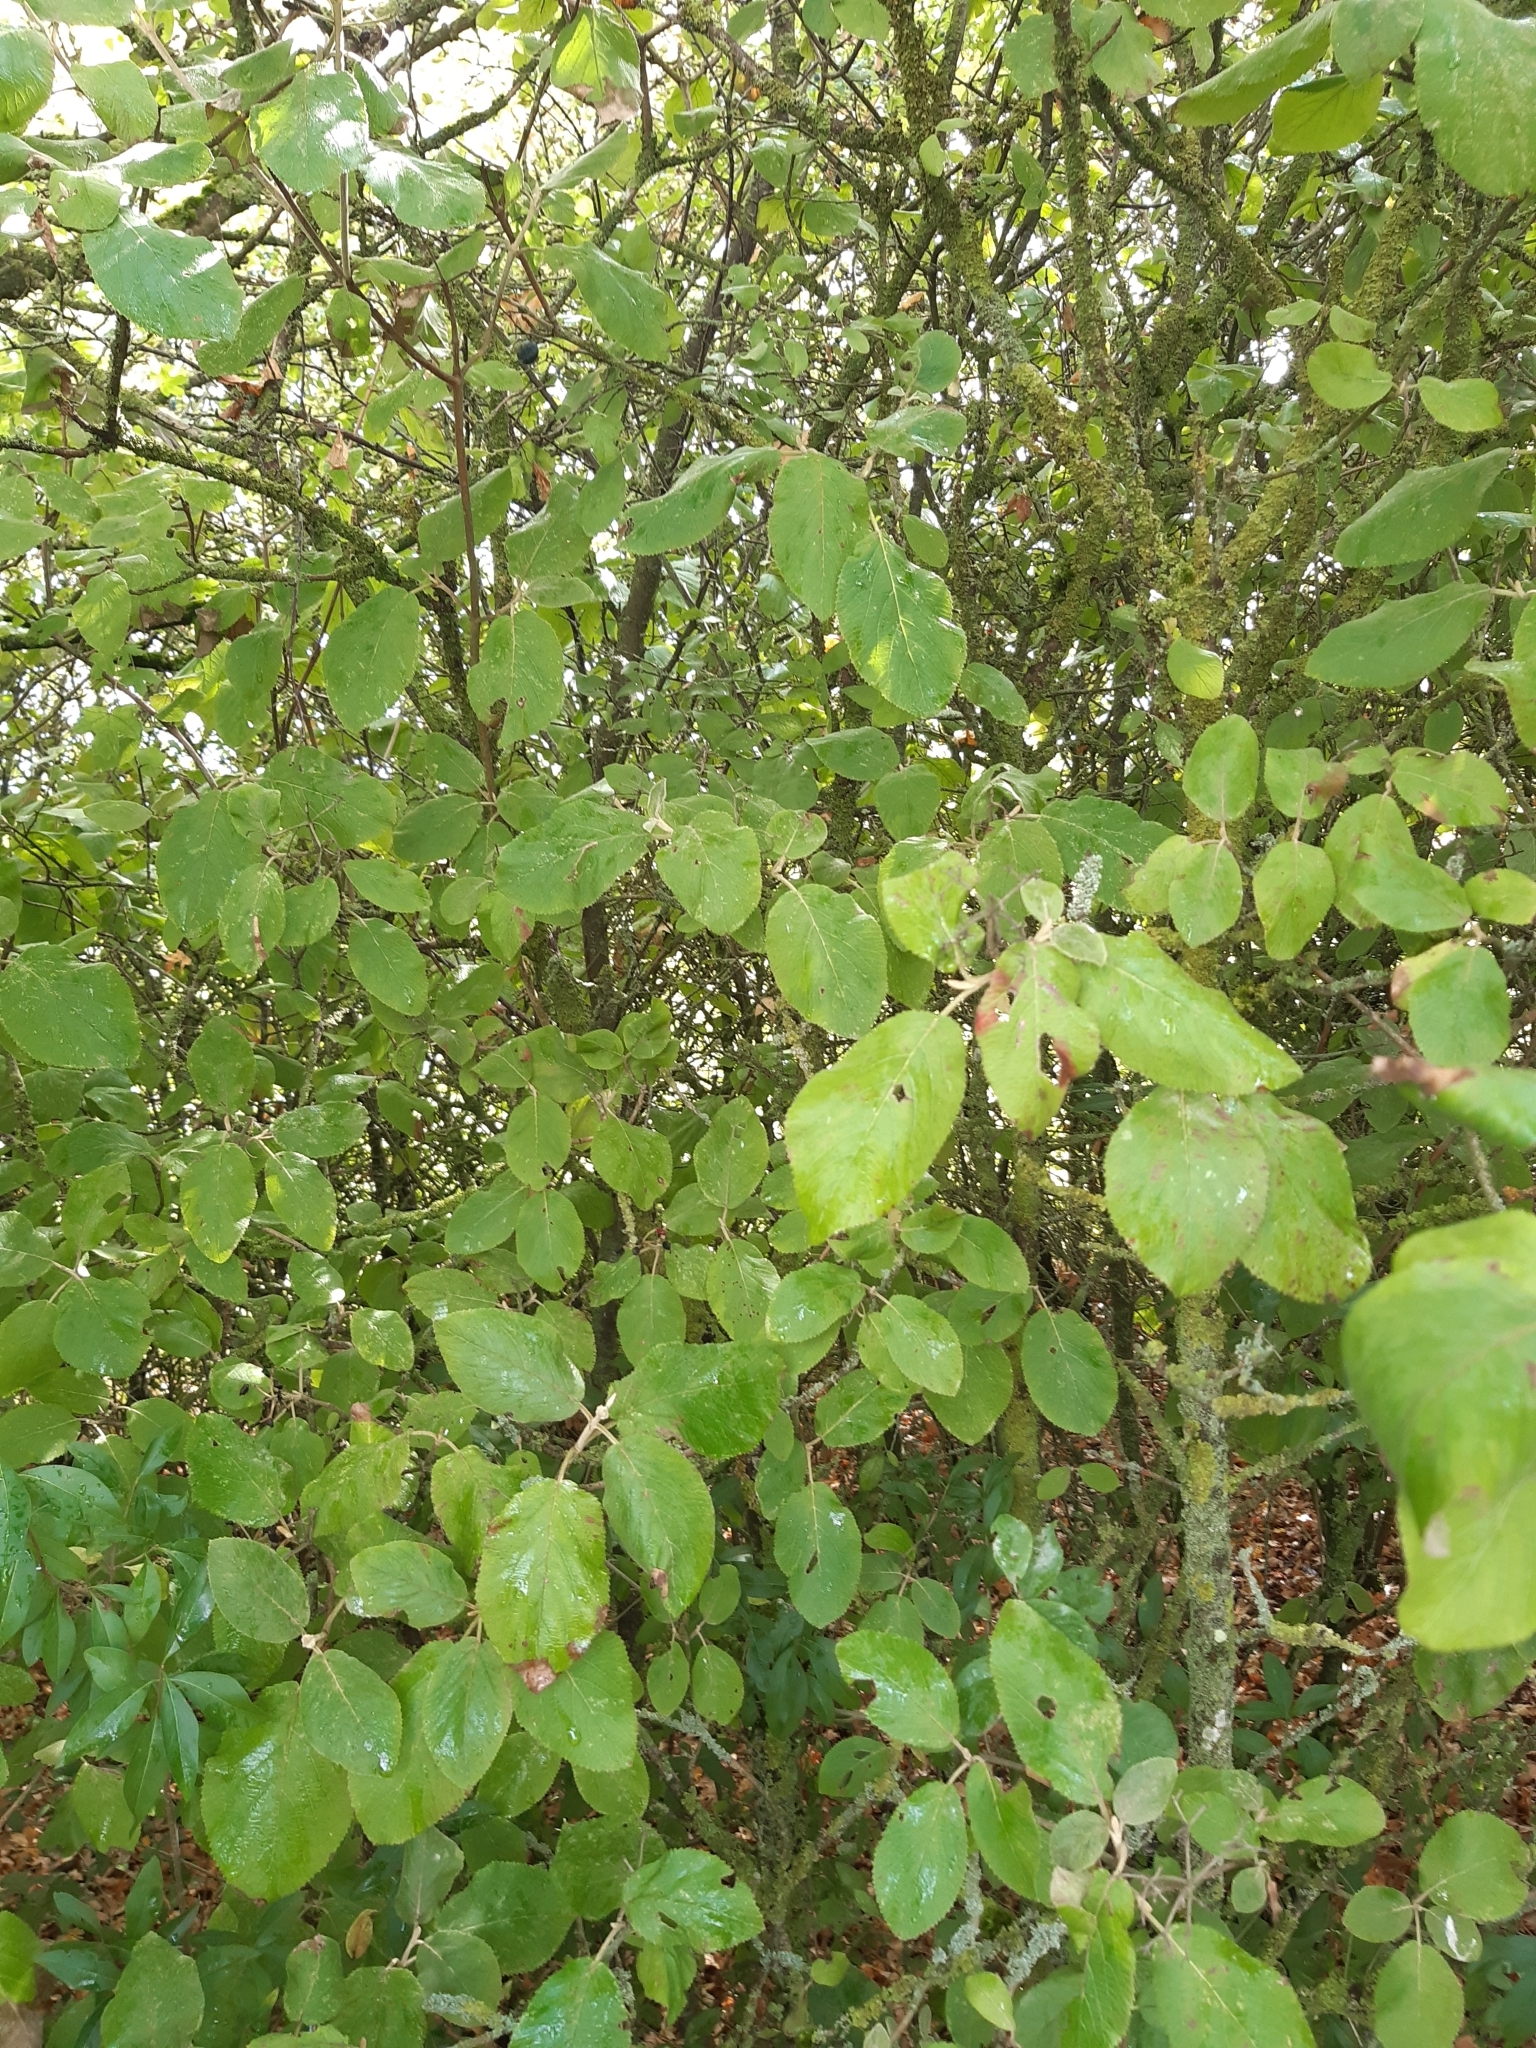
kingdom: Plantae
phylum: Tracheophyta
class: Magnoliopsida
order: Dipsacales
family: Viburnaceae
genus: Viburnum
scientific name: Viburnum lantana
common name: Wayfaring tree
